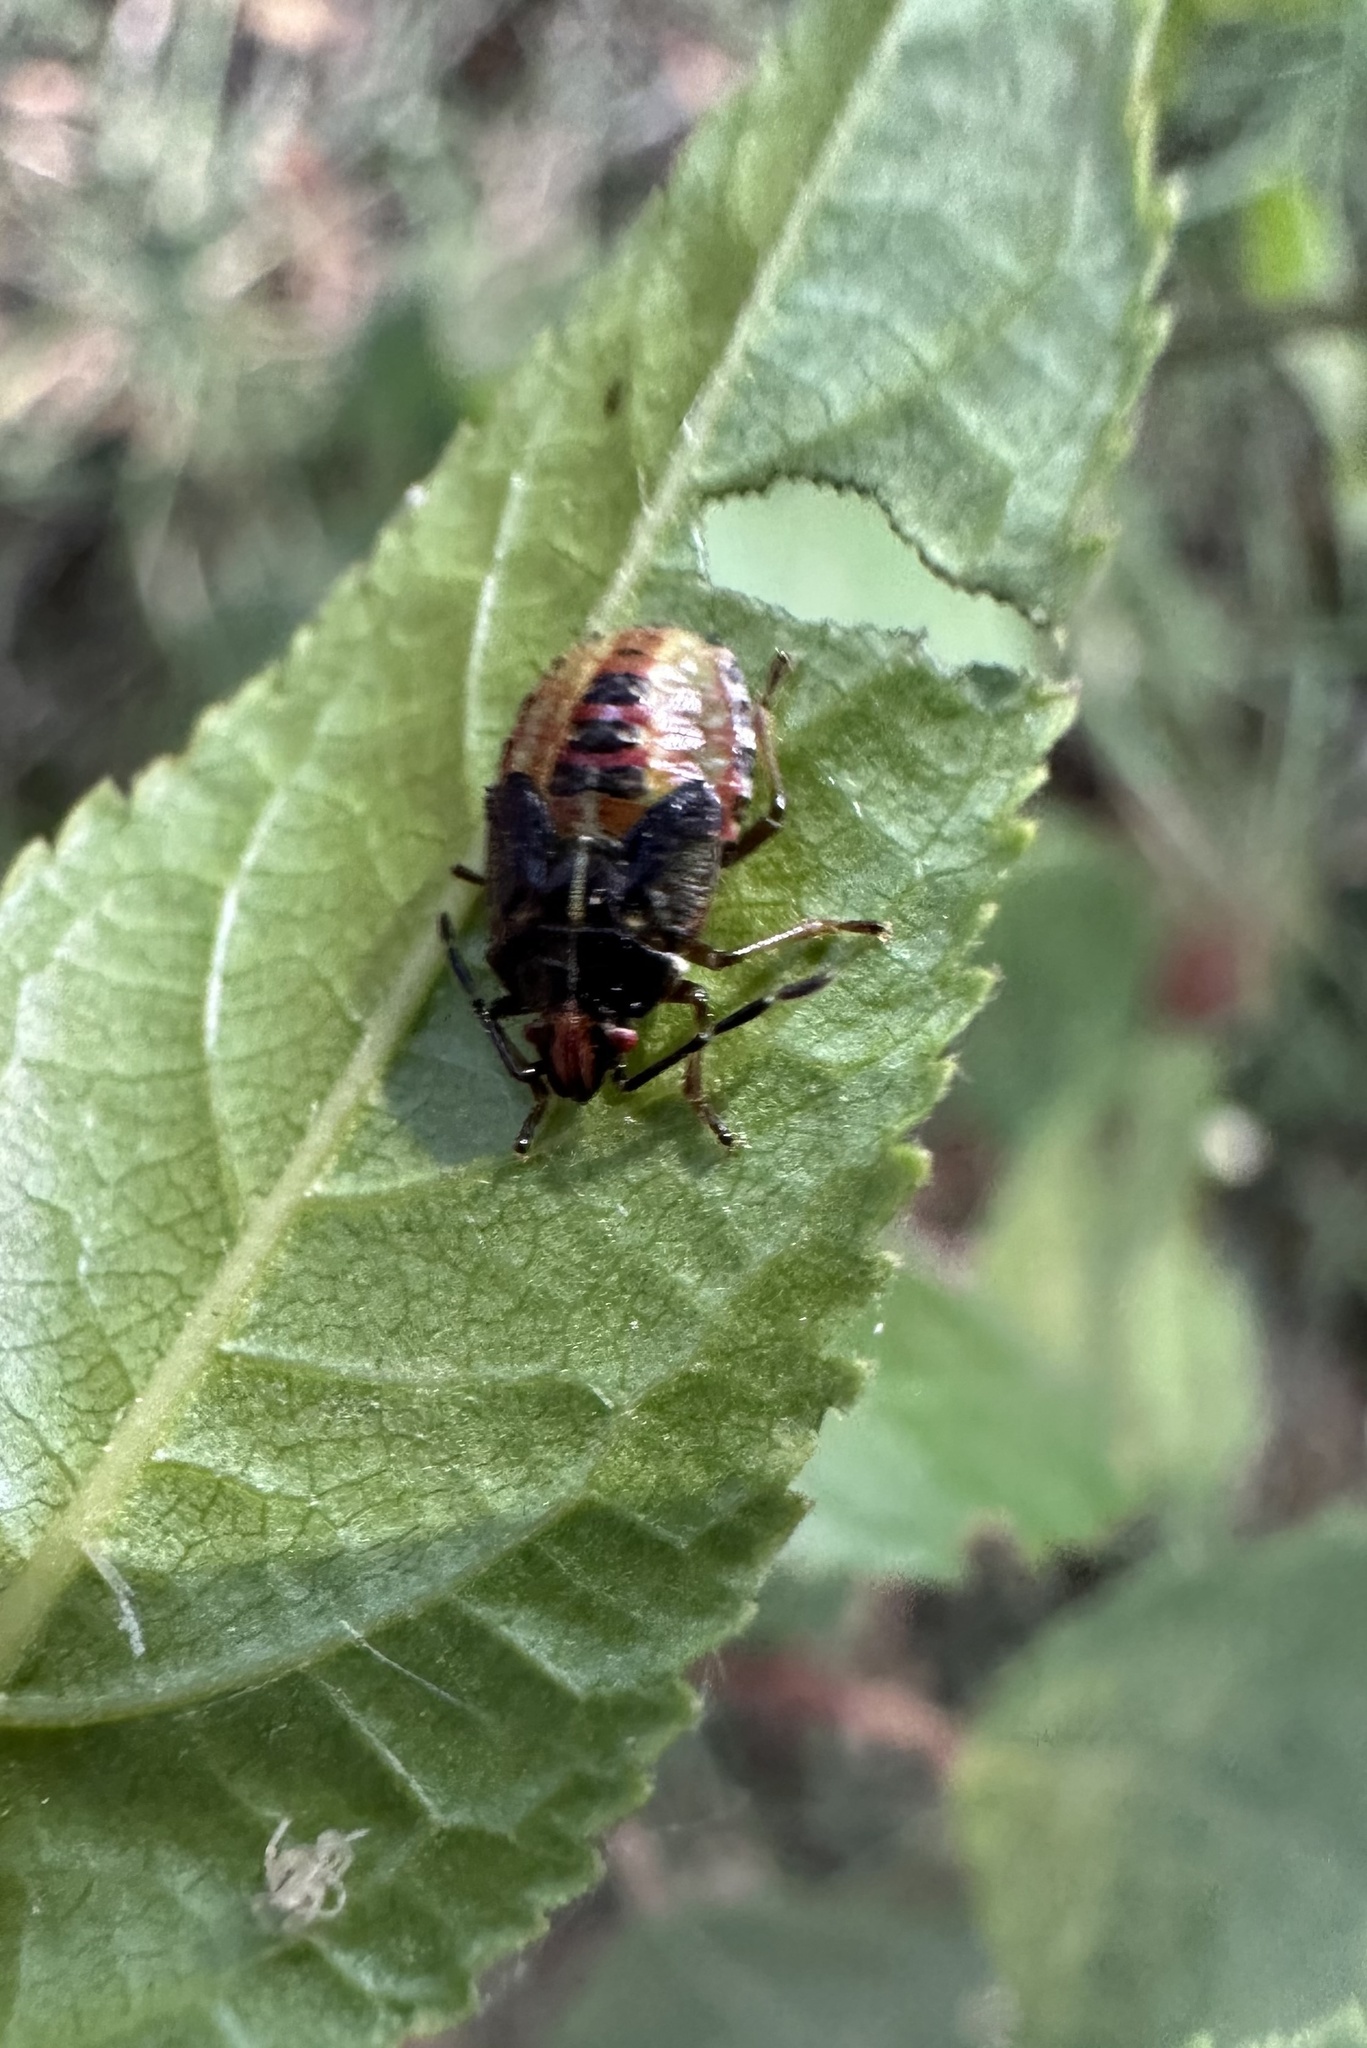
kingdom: Animalia
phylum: Arthropoda
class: Insecta
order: Hemiptera
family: Acanthosomatidae
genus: Sinopla
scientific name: Sinopla perpunctatus
